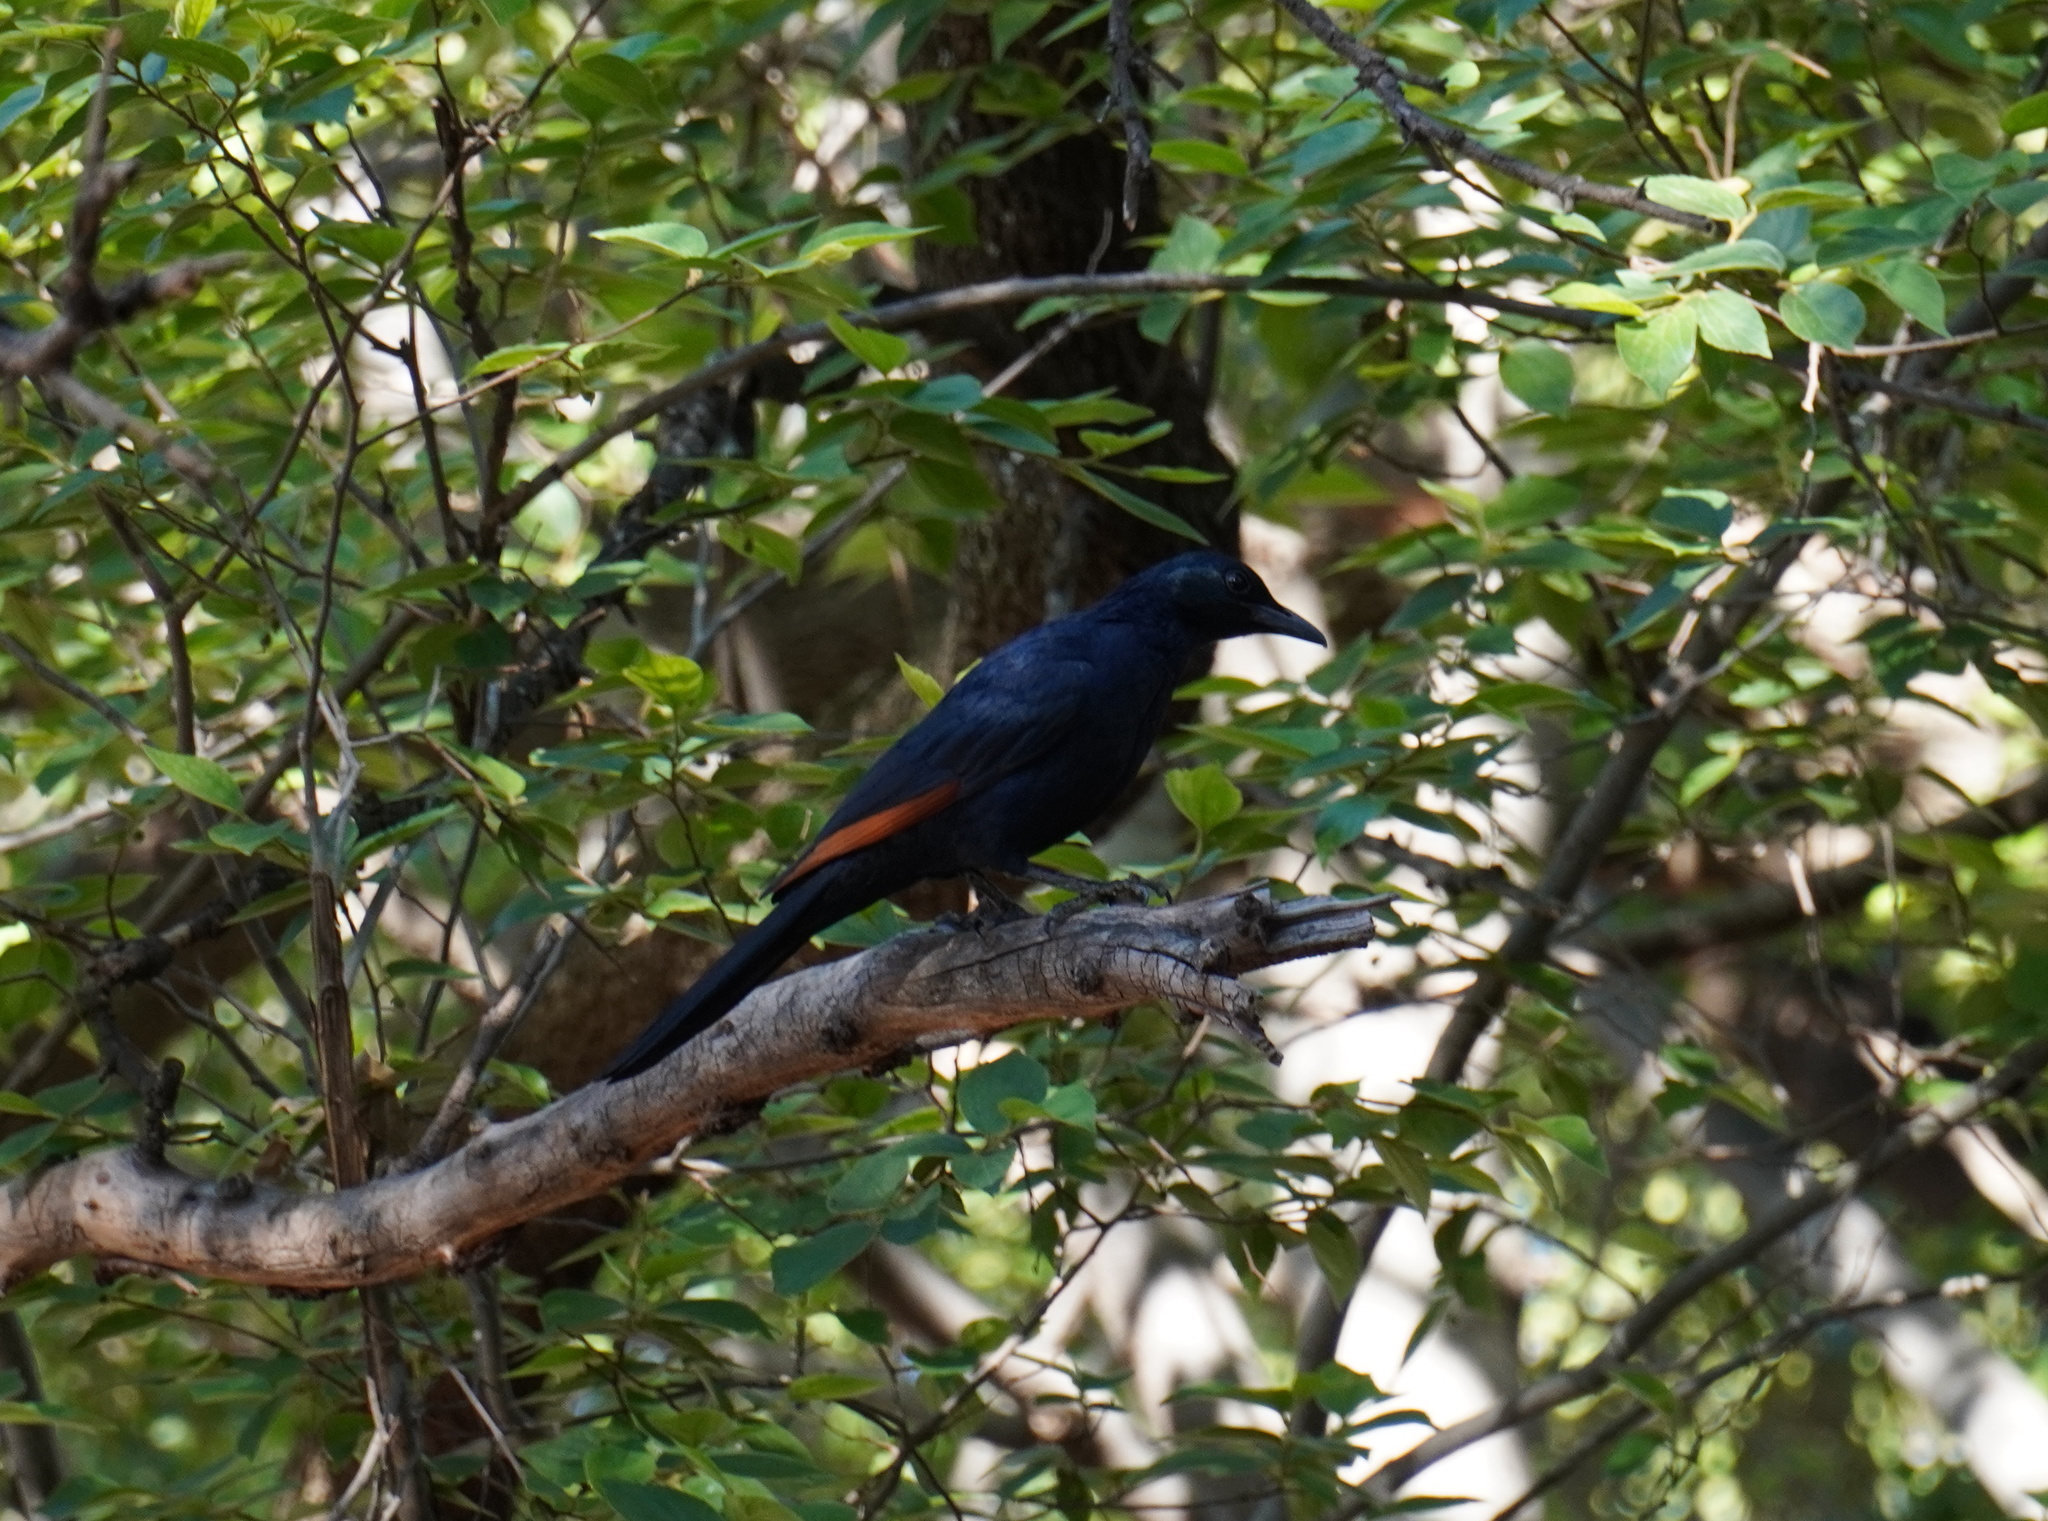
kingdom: Animalia
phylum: Chordata
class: Aves
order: Passeriformes
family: Sturnidae
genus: Onychognathus
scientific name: Onychognathus morio
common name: Red-winged starling
